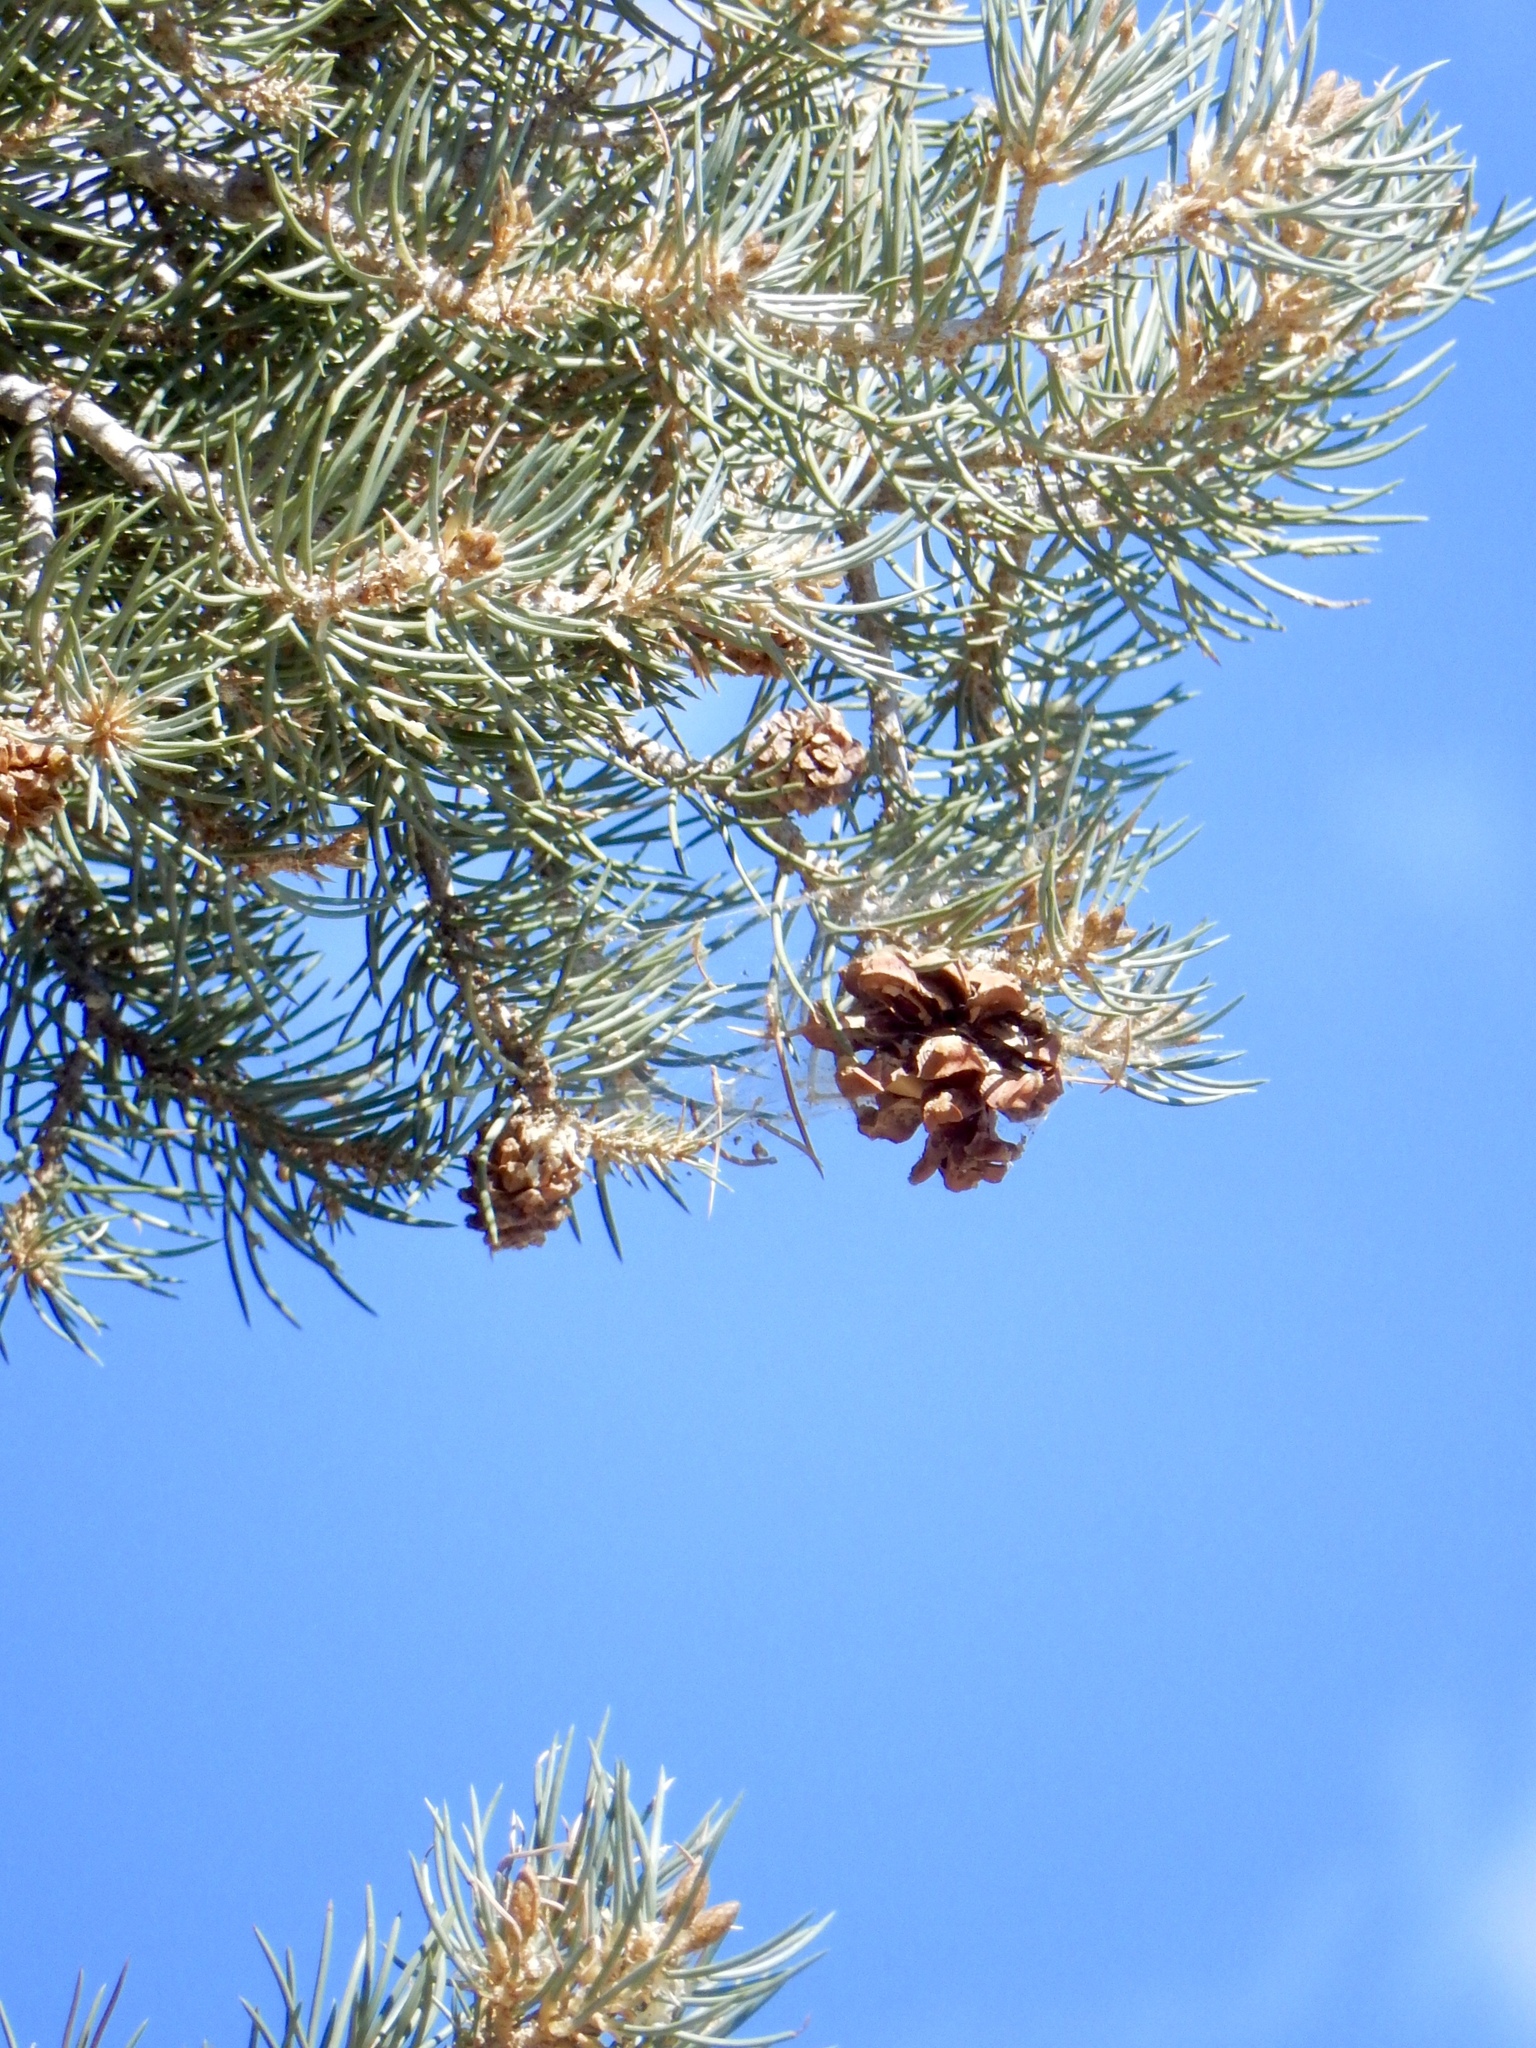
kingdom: Plantae
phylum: Tracheophyta
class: Pinopsida
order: Pinales
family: Pinaceae
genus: Pinus
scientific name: Pinus monophylla
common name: One-leaved nut pine
